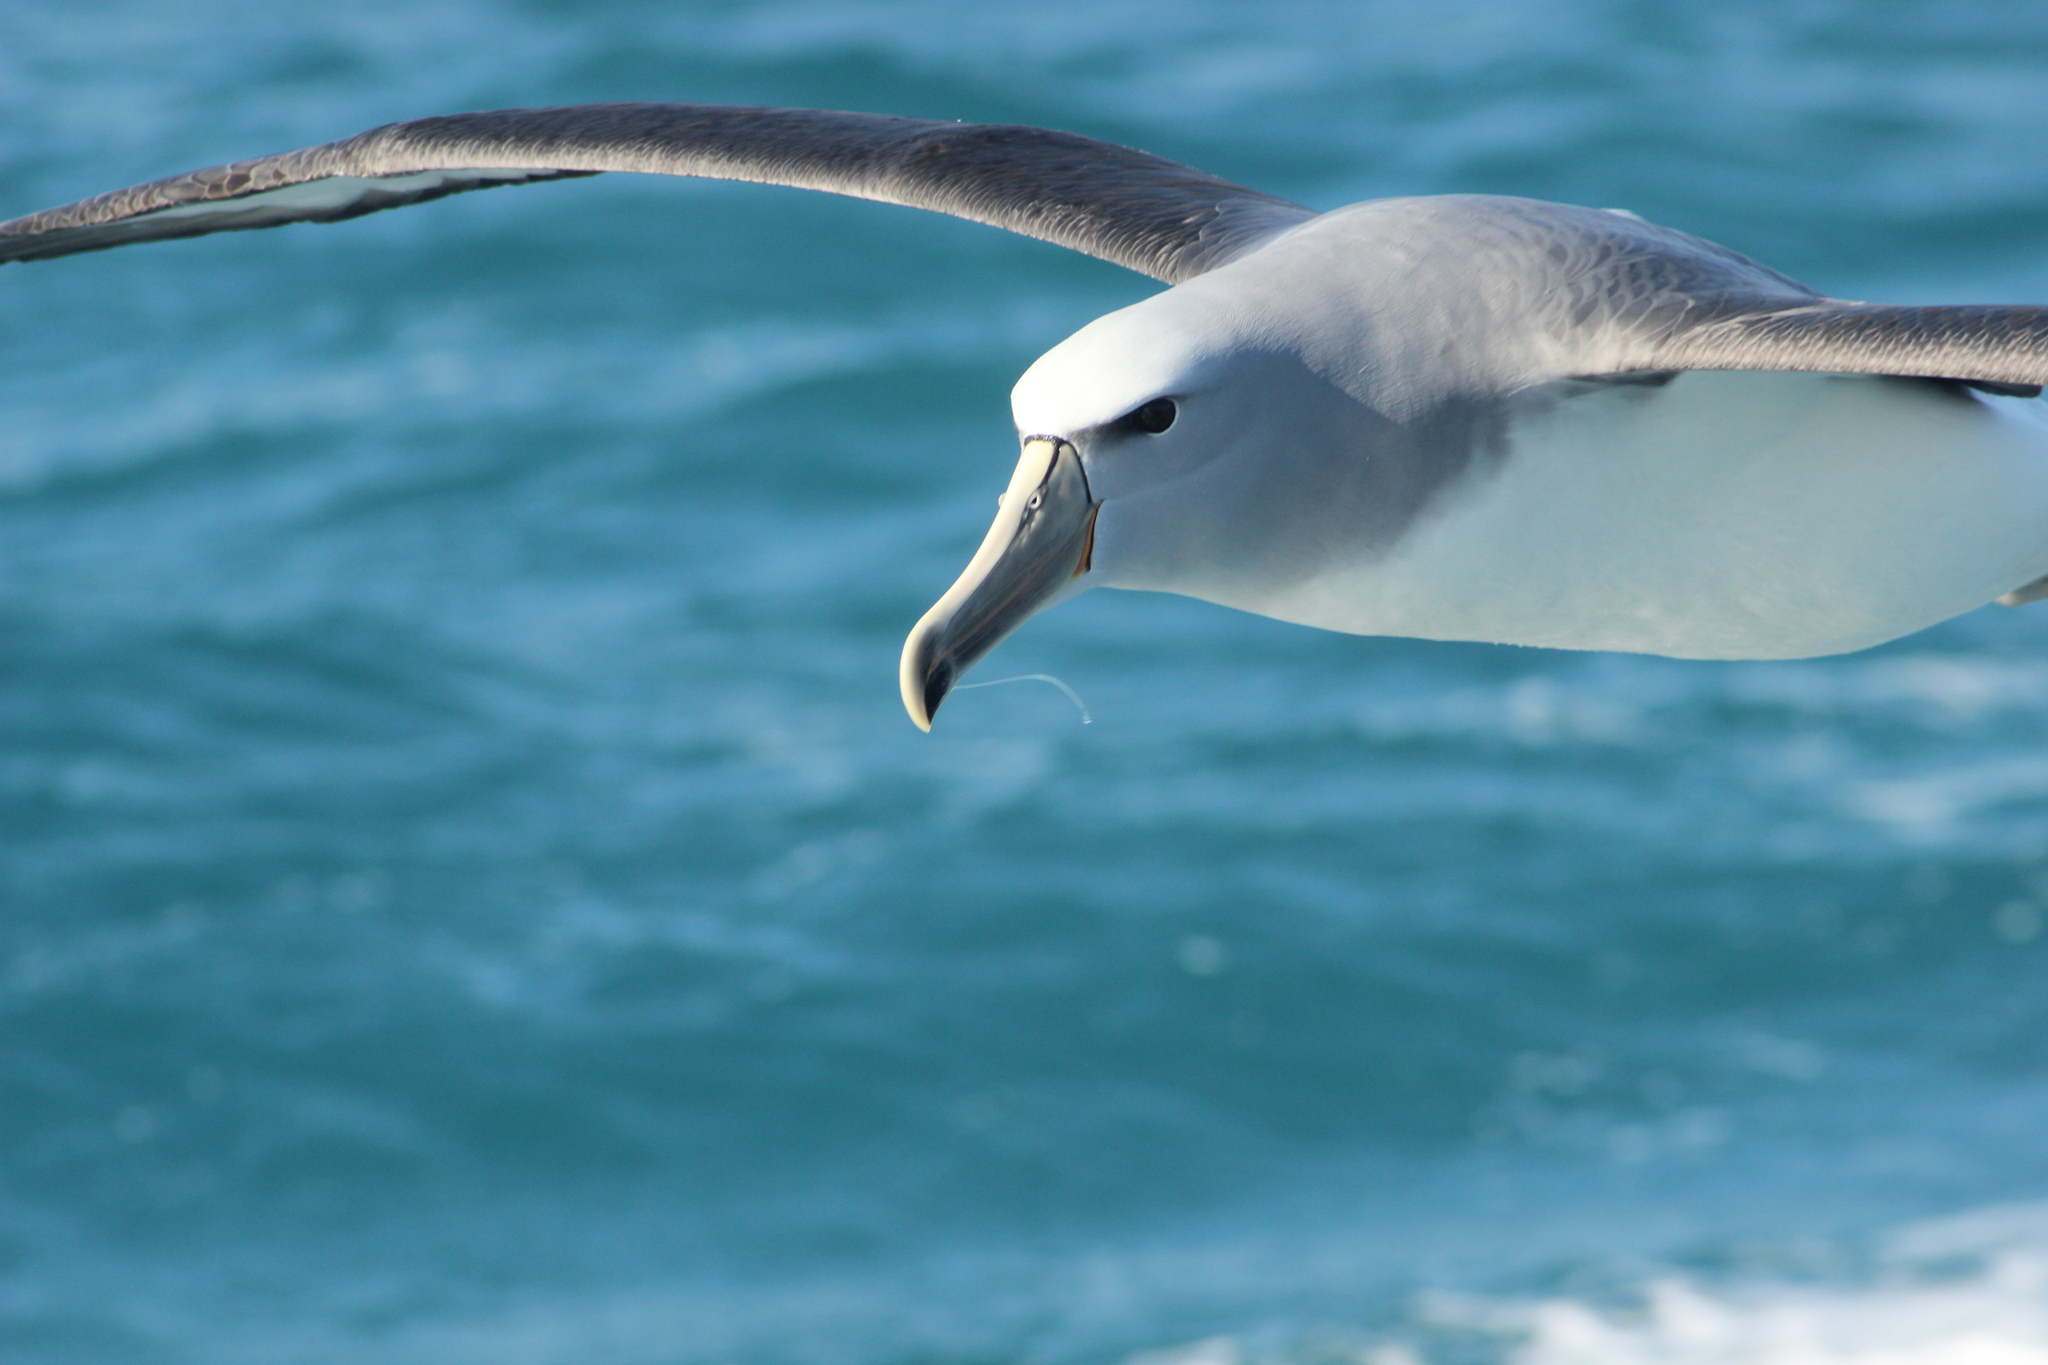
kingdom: Animalia
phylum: Chordata
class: Aves
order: Procellariiformes
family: Diomedeidae
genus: Thalassarche
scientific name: Thalassarche salvini
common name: Salvin's albatross
